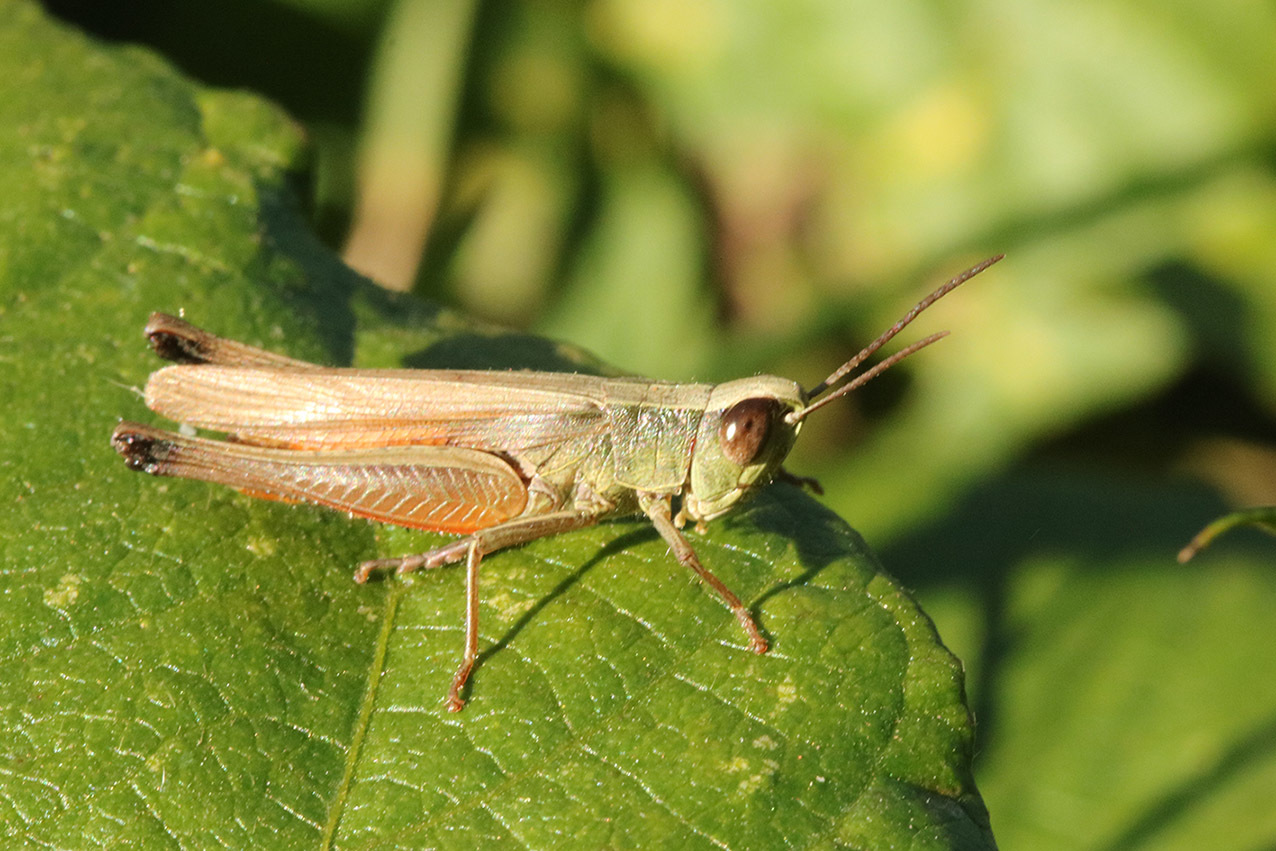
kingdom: Animalia
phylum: Arthropoda
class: Insecta
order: Orthoptera
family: Acrididae
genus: Amblytropidia
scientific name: Amblytropidia australis
